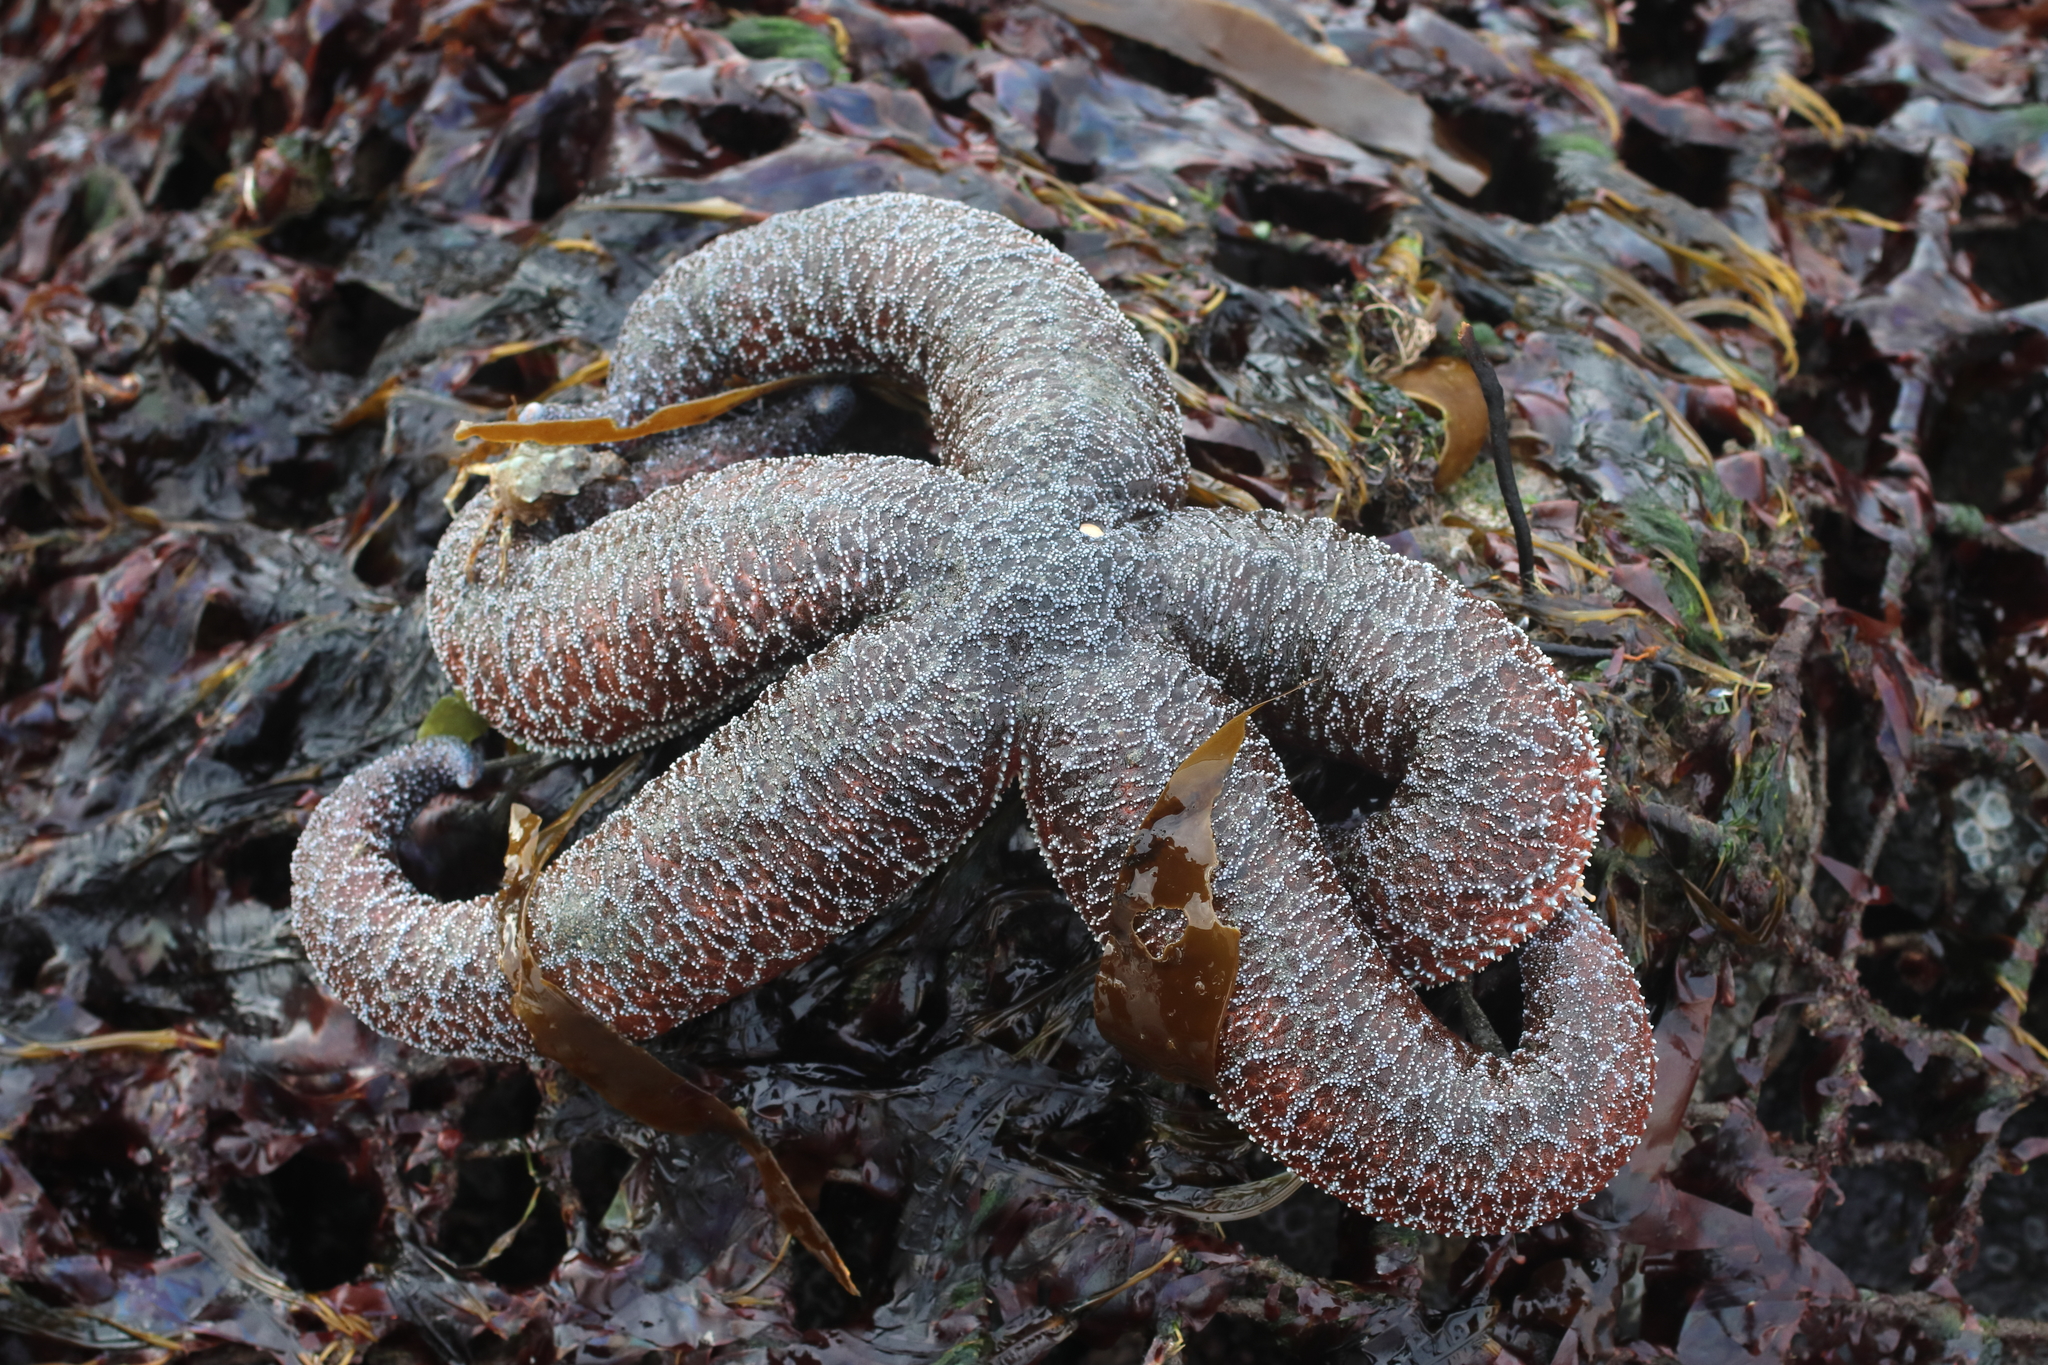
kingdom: Animalia
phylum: Echinodermata
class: Asteroidea
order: Forcipulatida
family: Asteriidae
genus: Evasterias
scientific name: Evasterias troschelii
